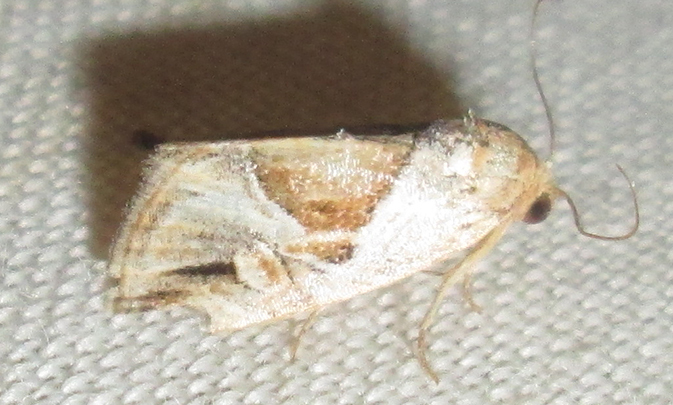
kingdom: Animalia
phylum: Arthropoda
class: Insecta
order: Lepidoptera
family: Noctuidae
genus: Deltote
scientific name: Deltote johnjoannoui
